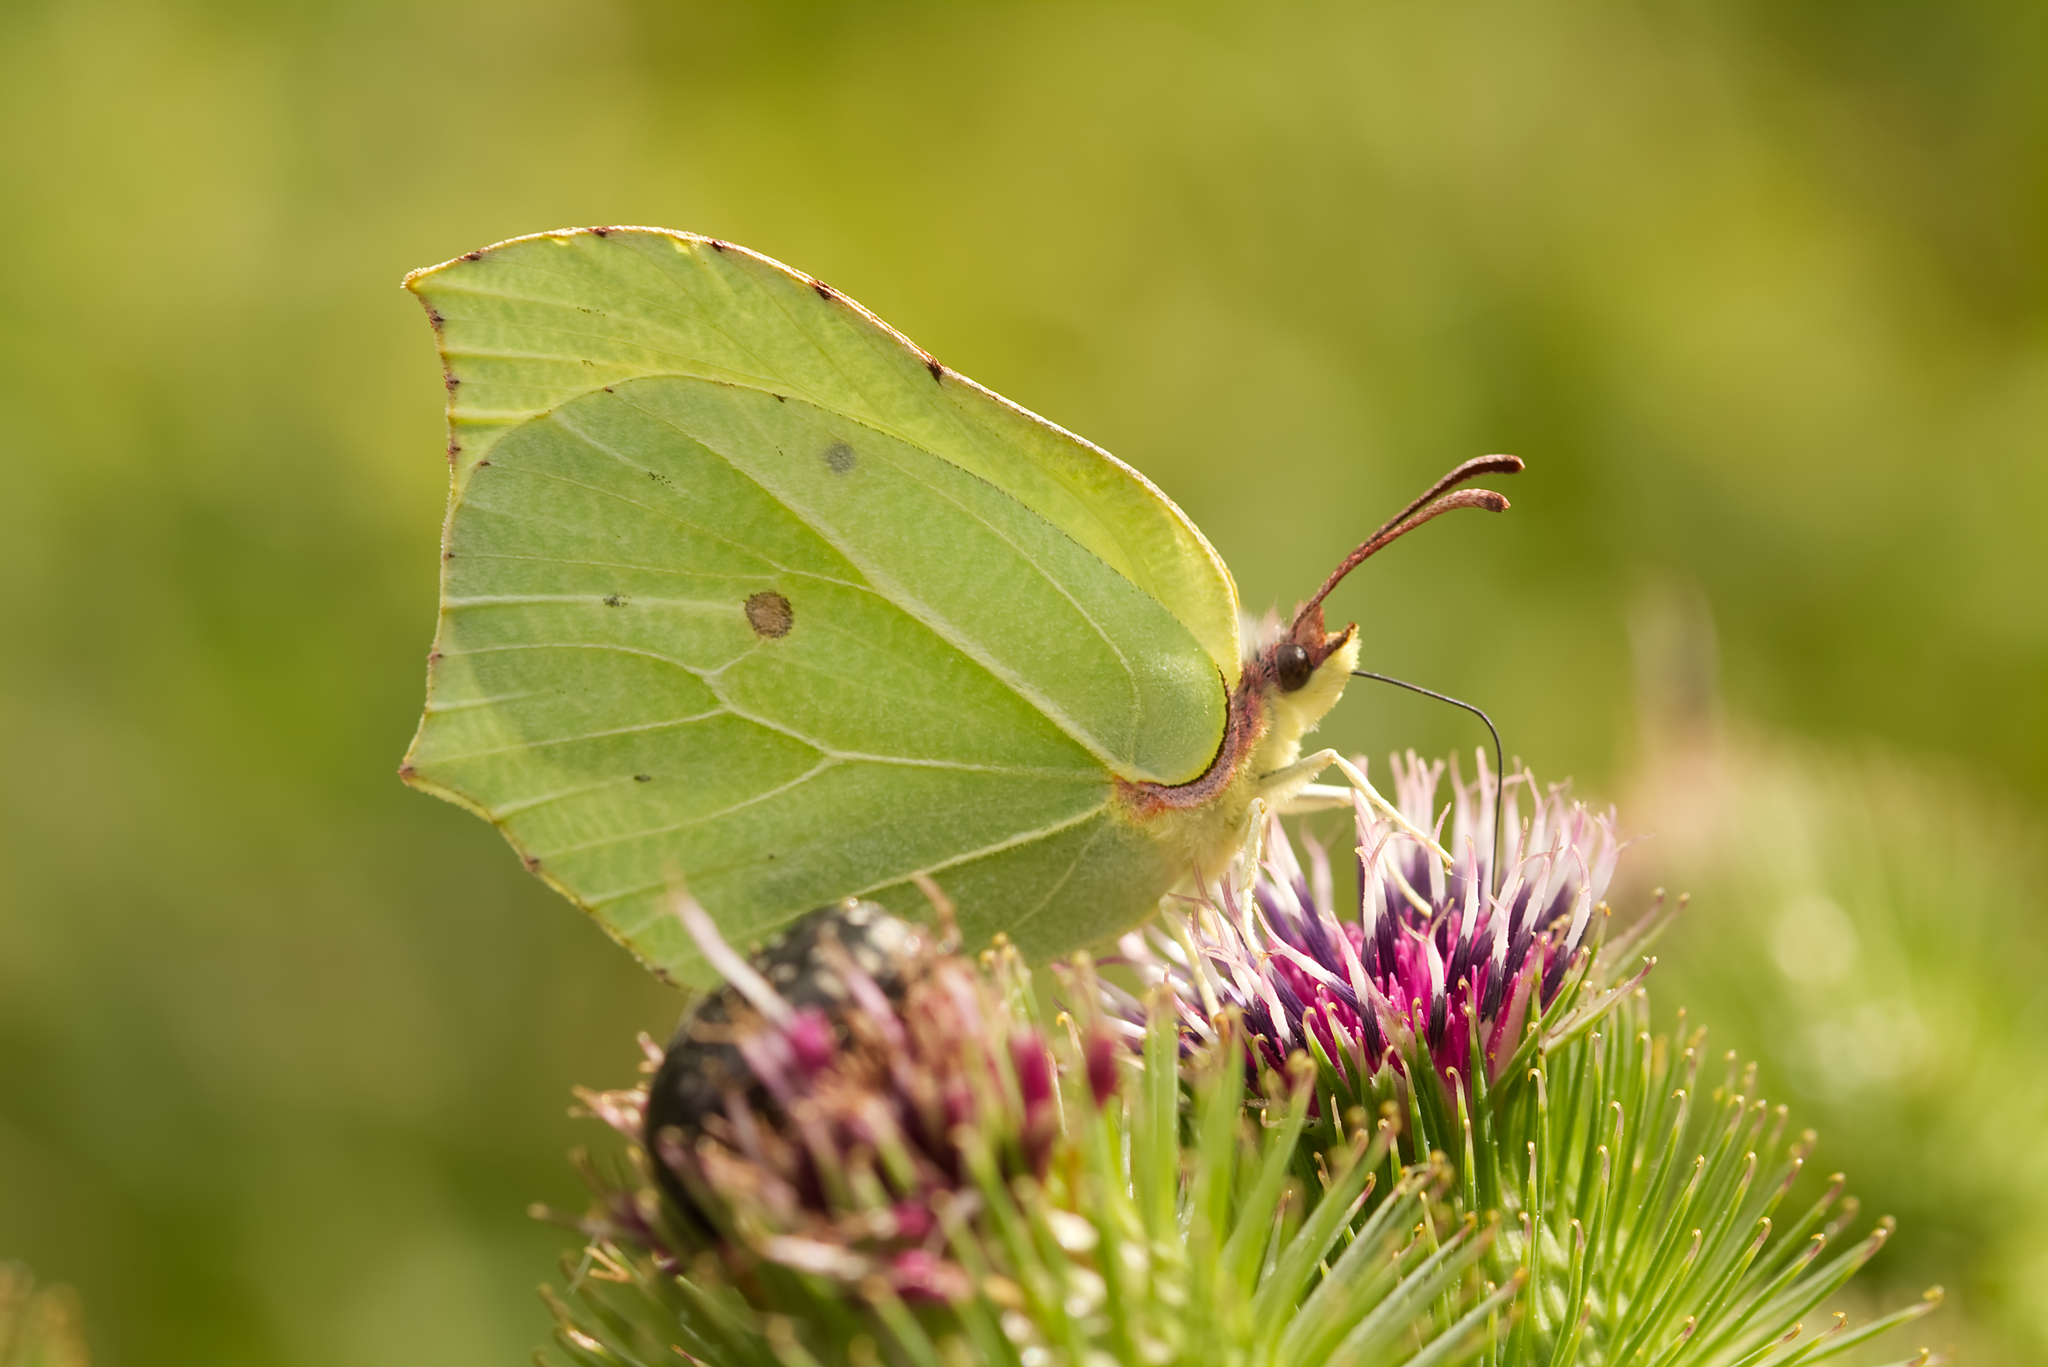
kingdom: Animalia
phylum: Arthropoda
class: Insecta
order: Lepidoptera
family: Pieridae
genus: Gonepteryx
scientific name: Gonepteryx rhamni
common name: Brimstone
